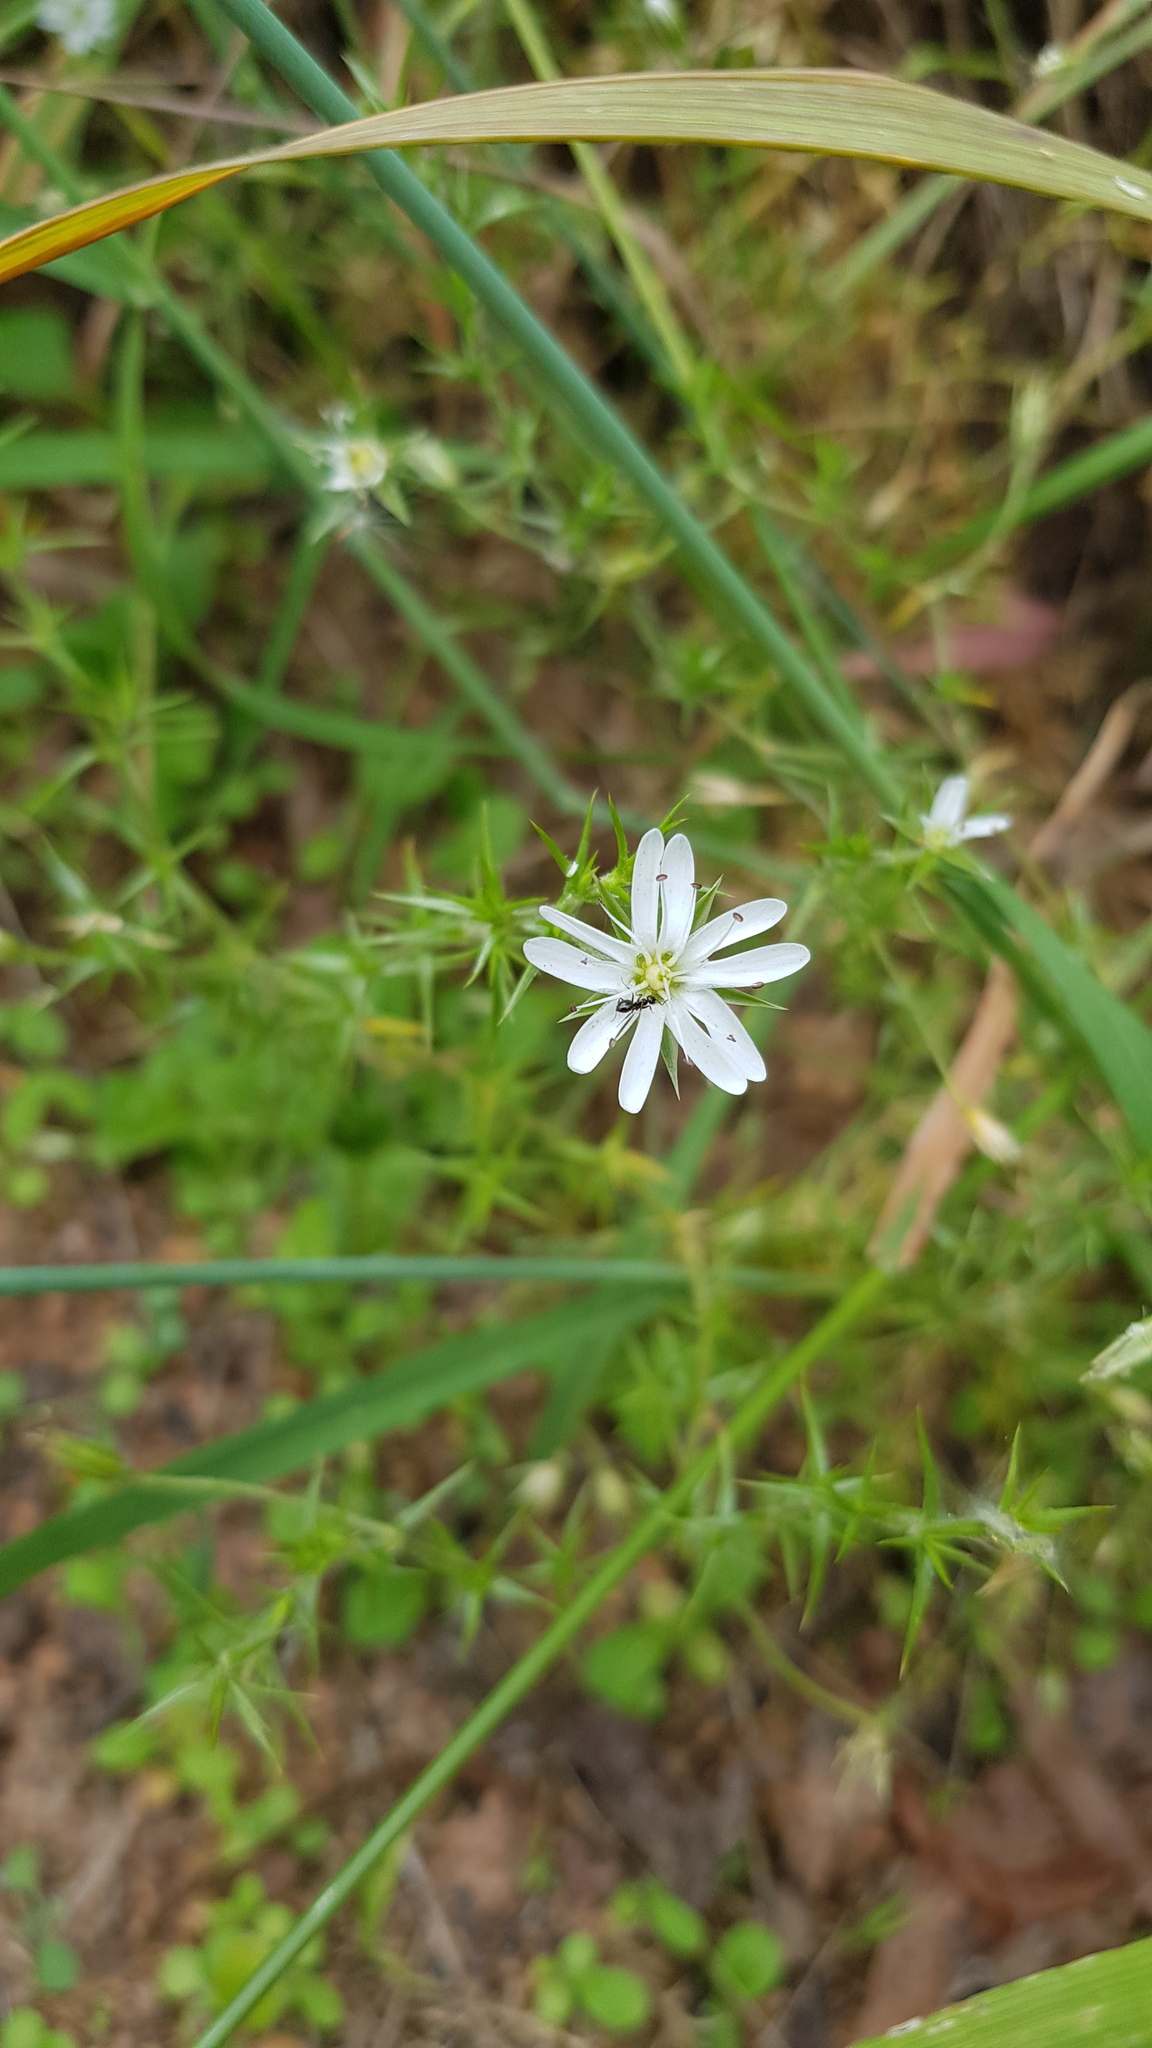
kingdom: Plantae
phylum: Tracheophyta
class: Magnoliopsida
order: Caryophyllales
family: Caryophyllaceae
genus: Stellaria
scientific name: Stellaria pungens
